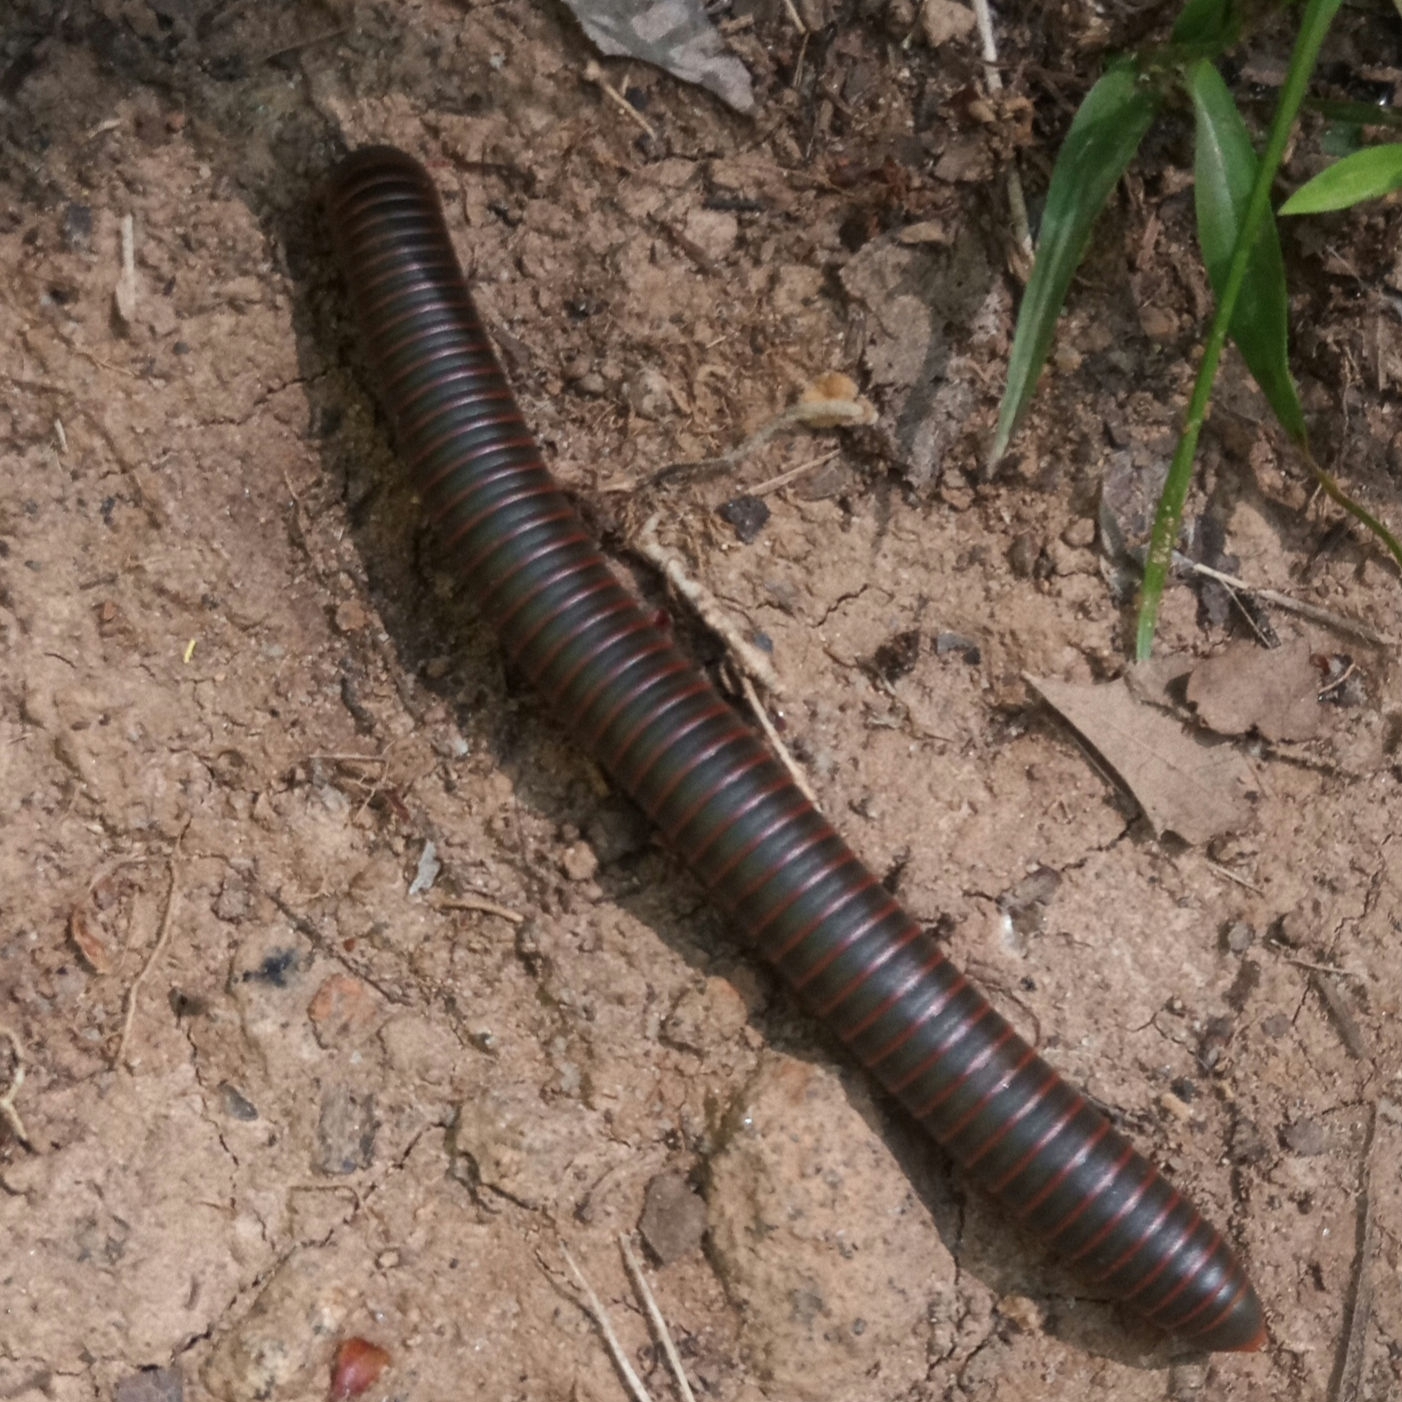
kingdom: Animalia
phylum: Arthropoda
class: Diplopoda
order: Spirobolida
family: Spirobolidae
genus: Narceus
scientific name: Narceus americanus
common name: American giant millipede
